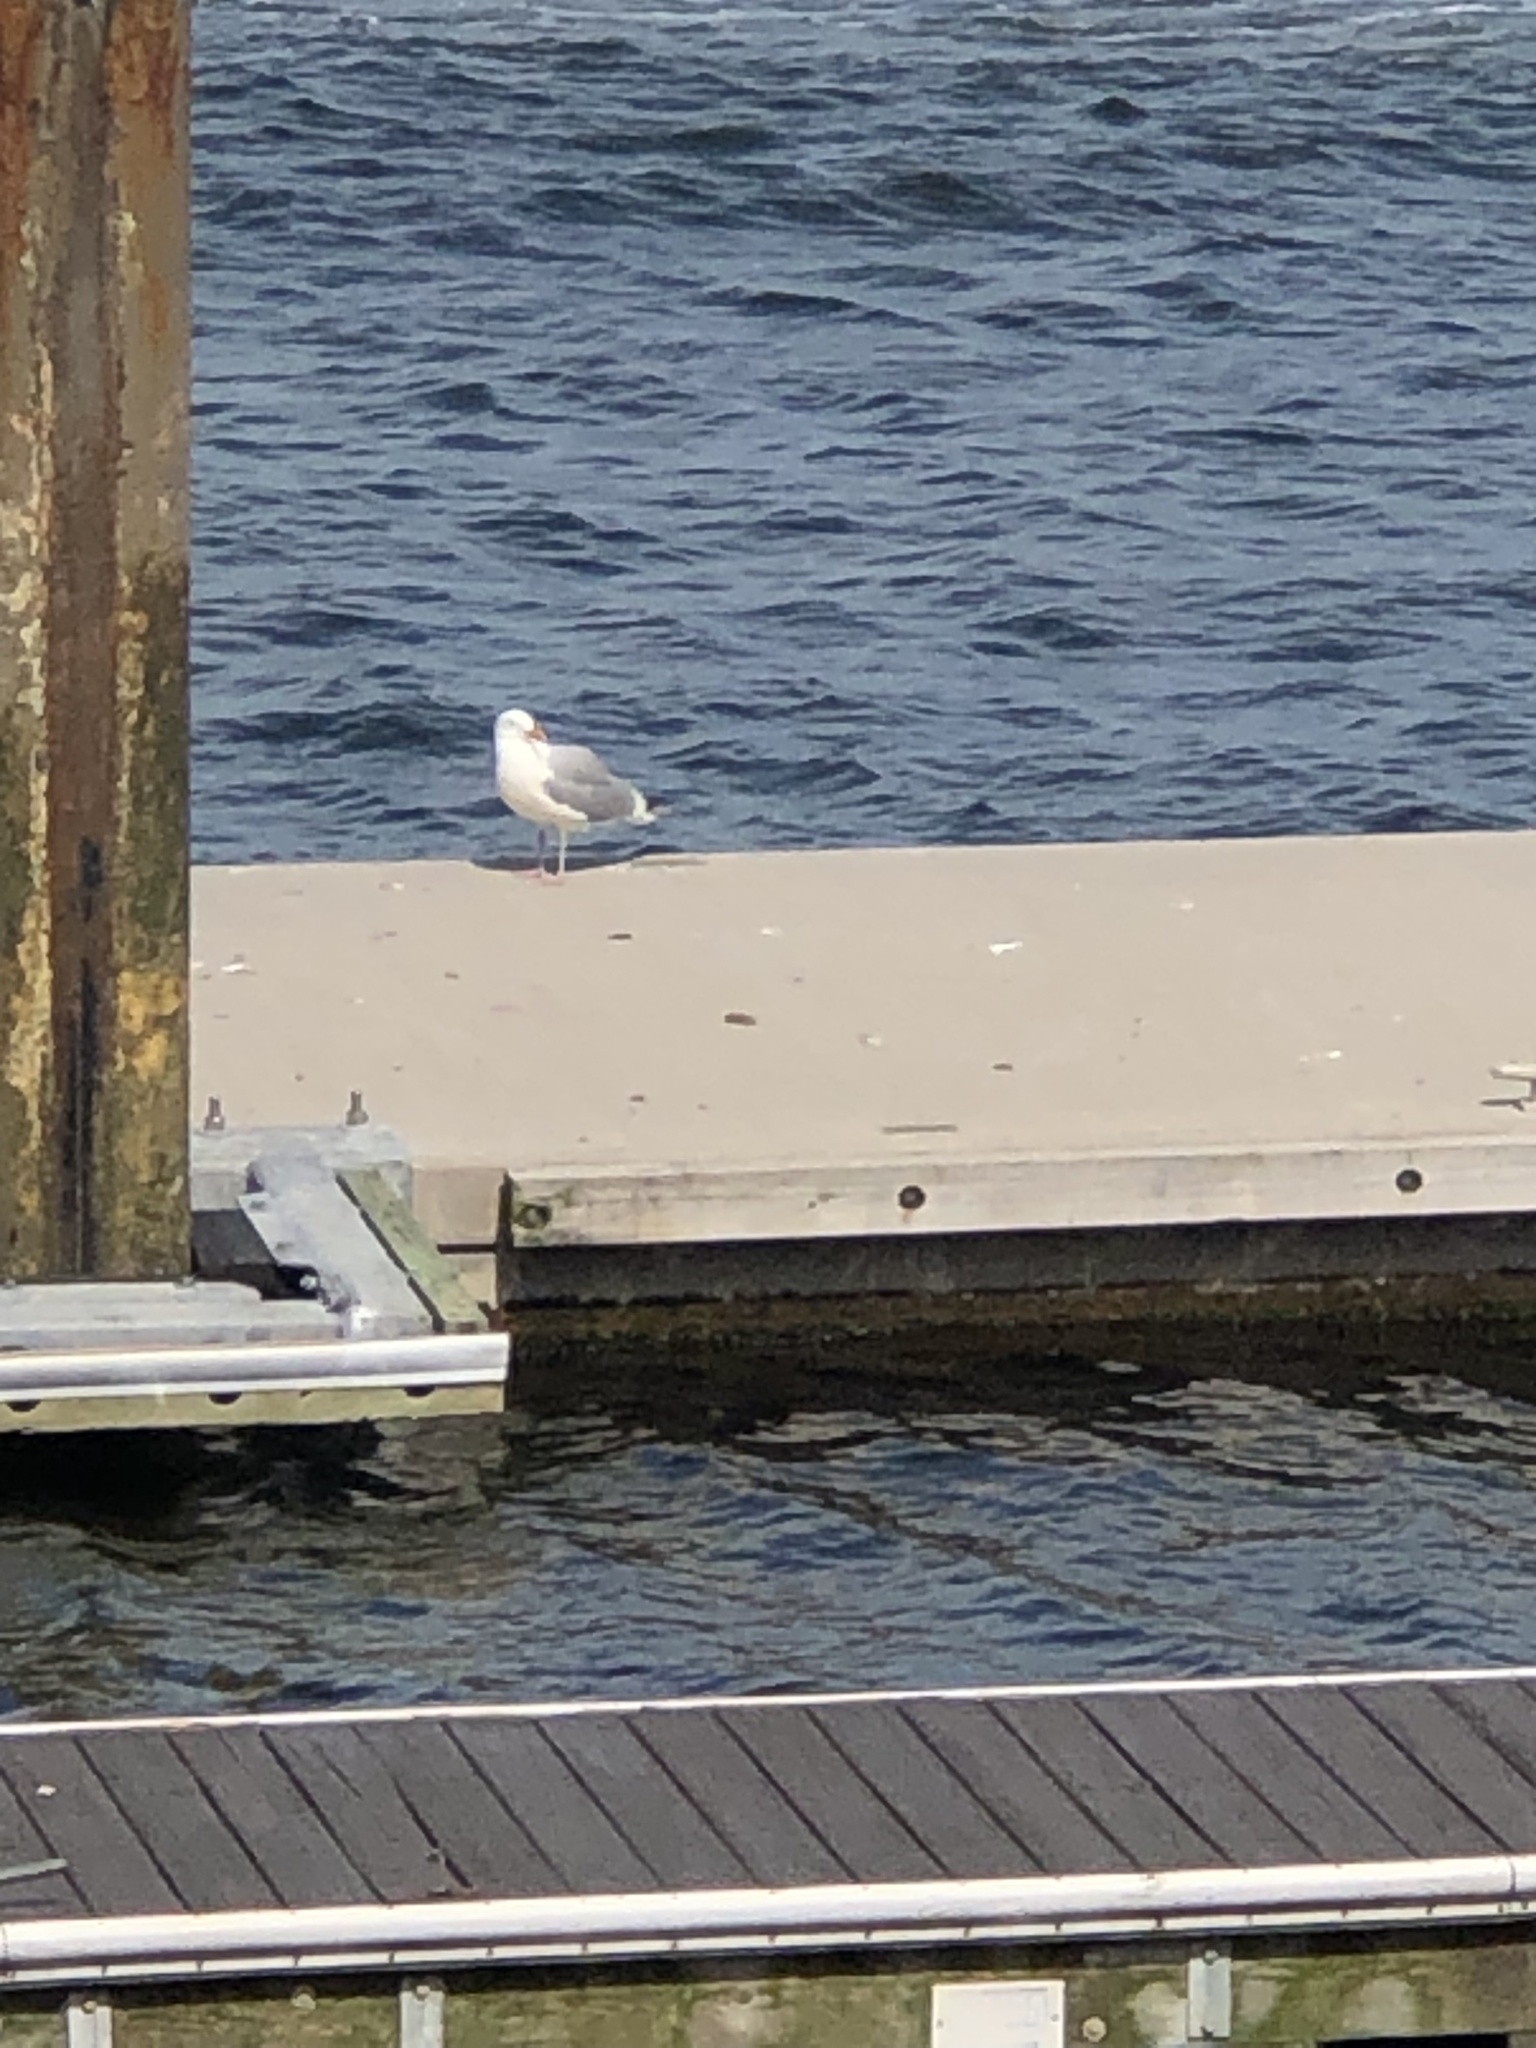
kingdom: Animalia
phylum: Chordata
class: Aves
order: Charadriiformes
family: Laridae
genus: Larus
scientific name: Larus argentatus
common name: Herring gull
